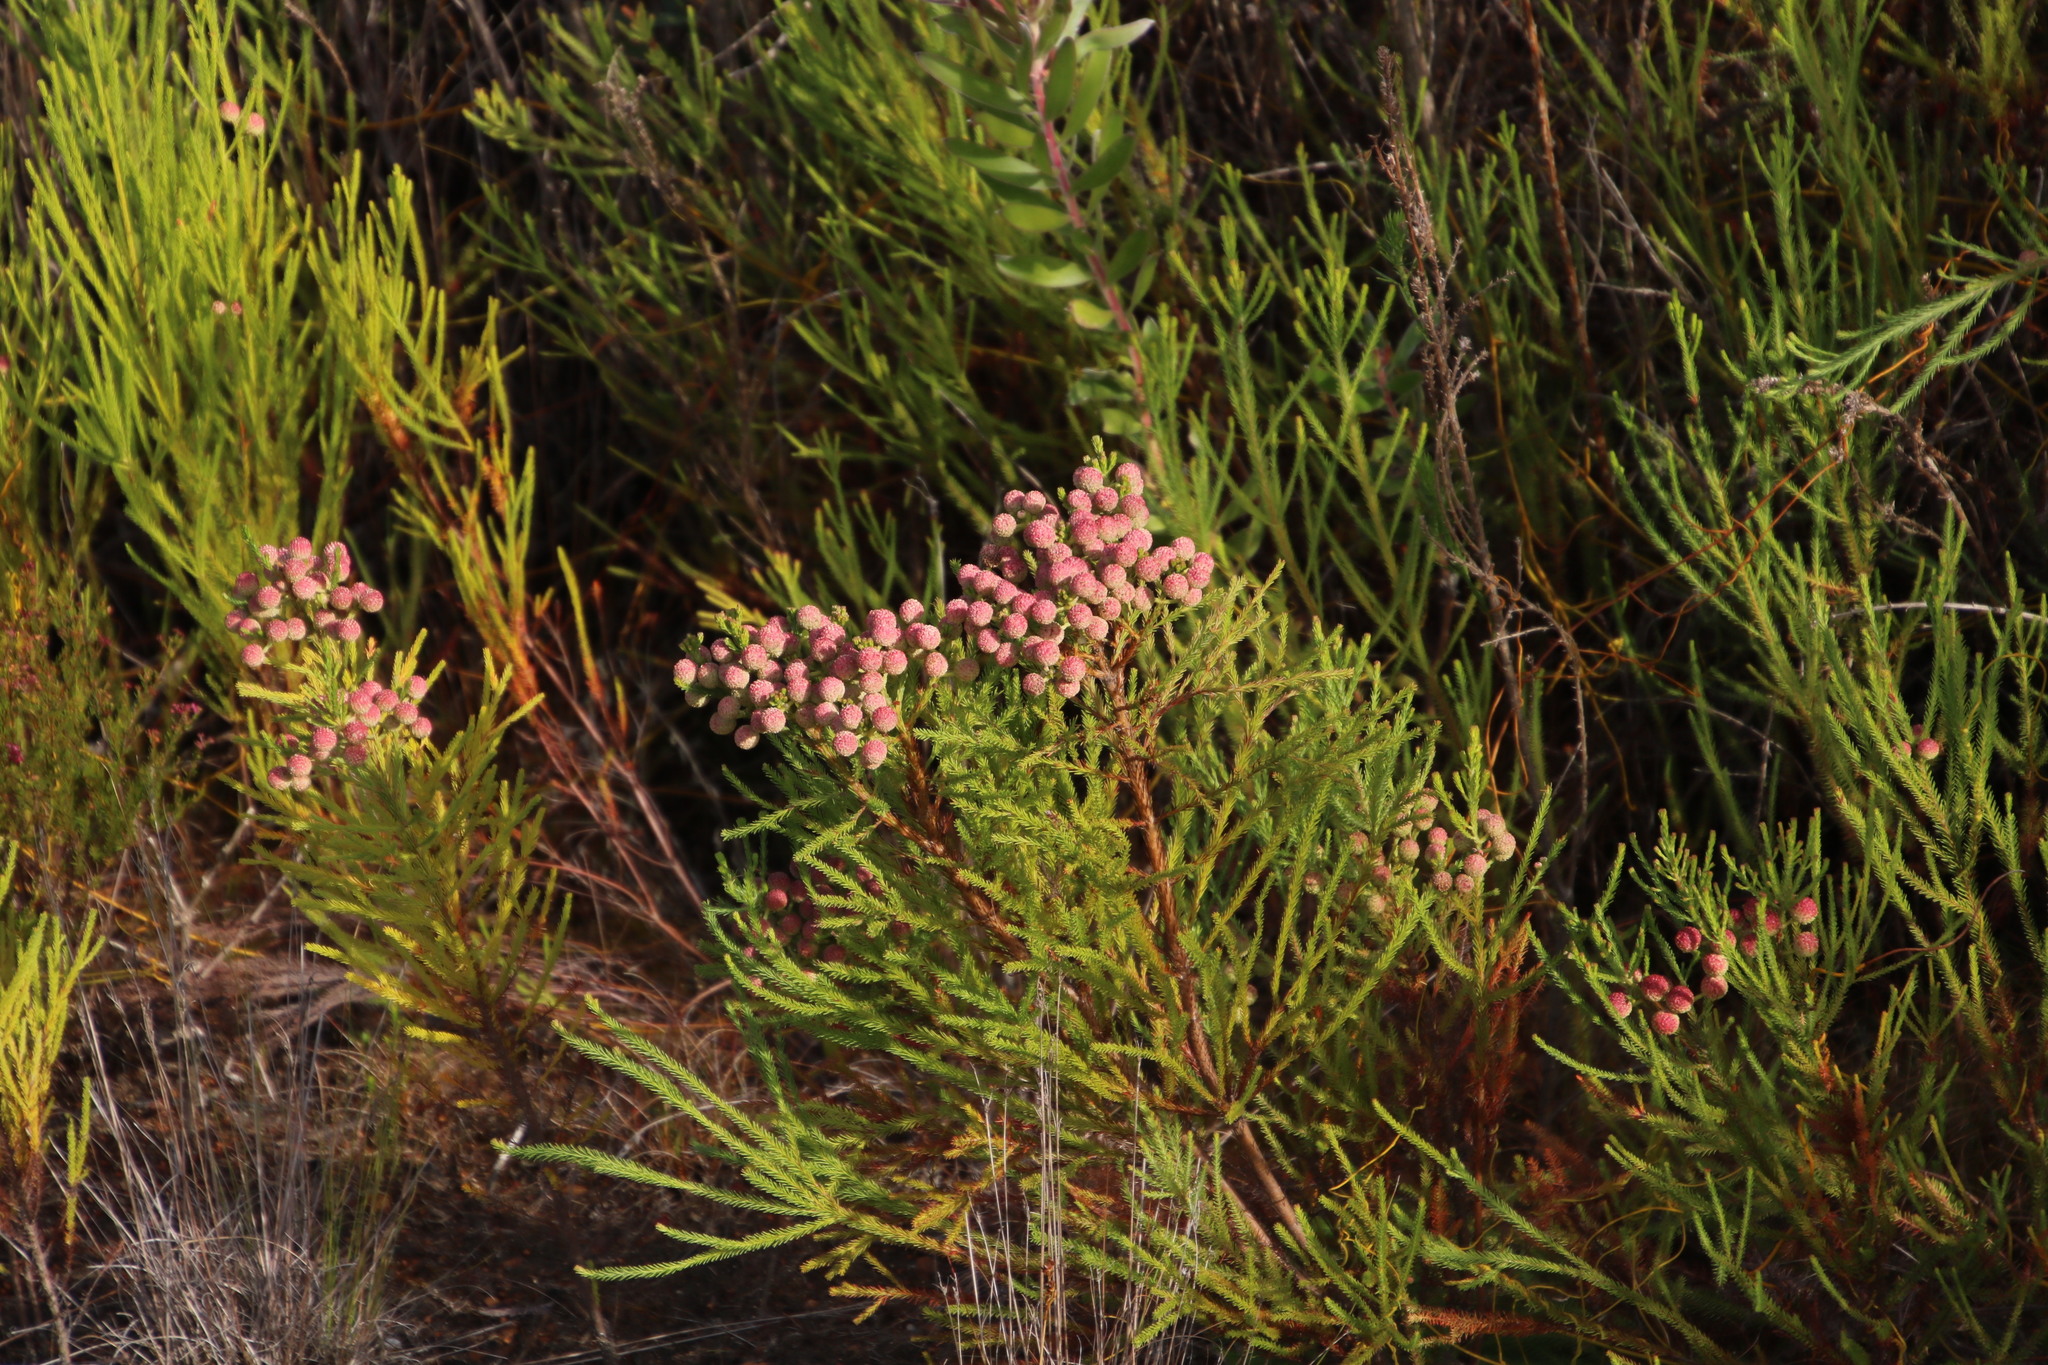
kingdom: Plantae
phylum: Tracheophyta
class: Magnoliopsida
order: Bruniales
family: Bruniaceae
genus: Berzelia
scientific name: Berzelia lanuginosa
